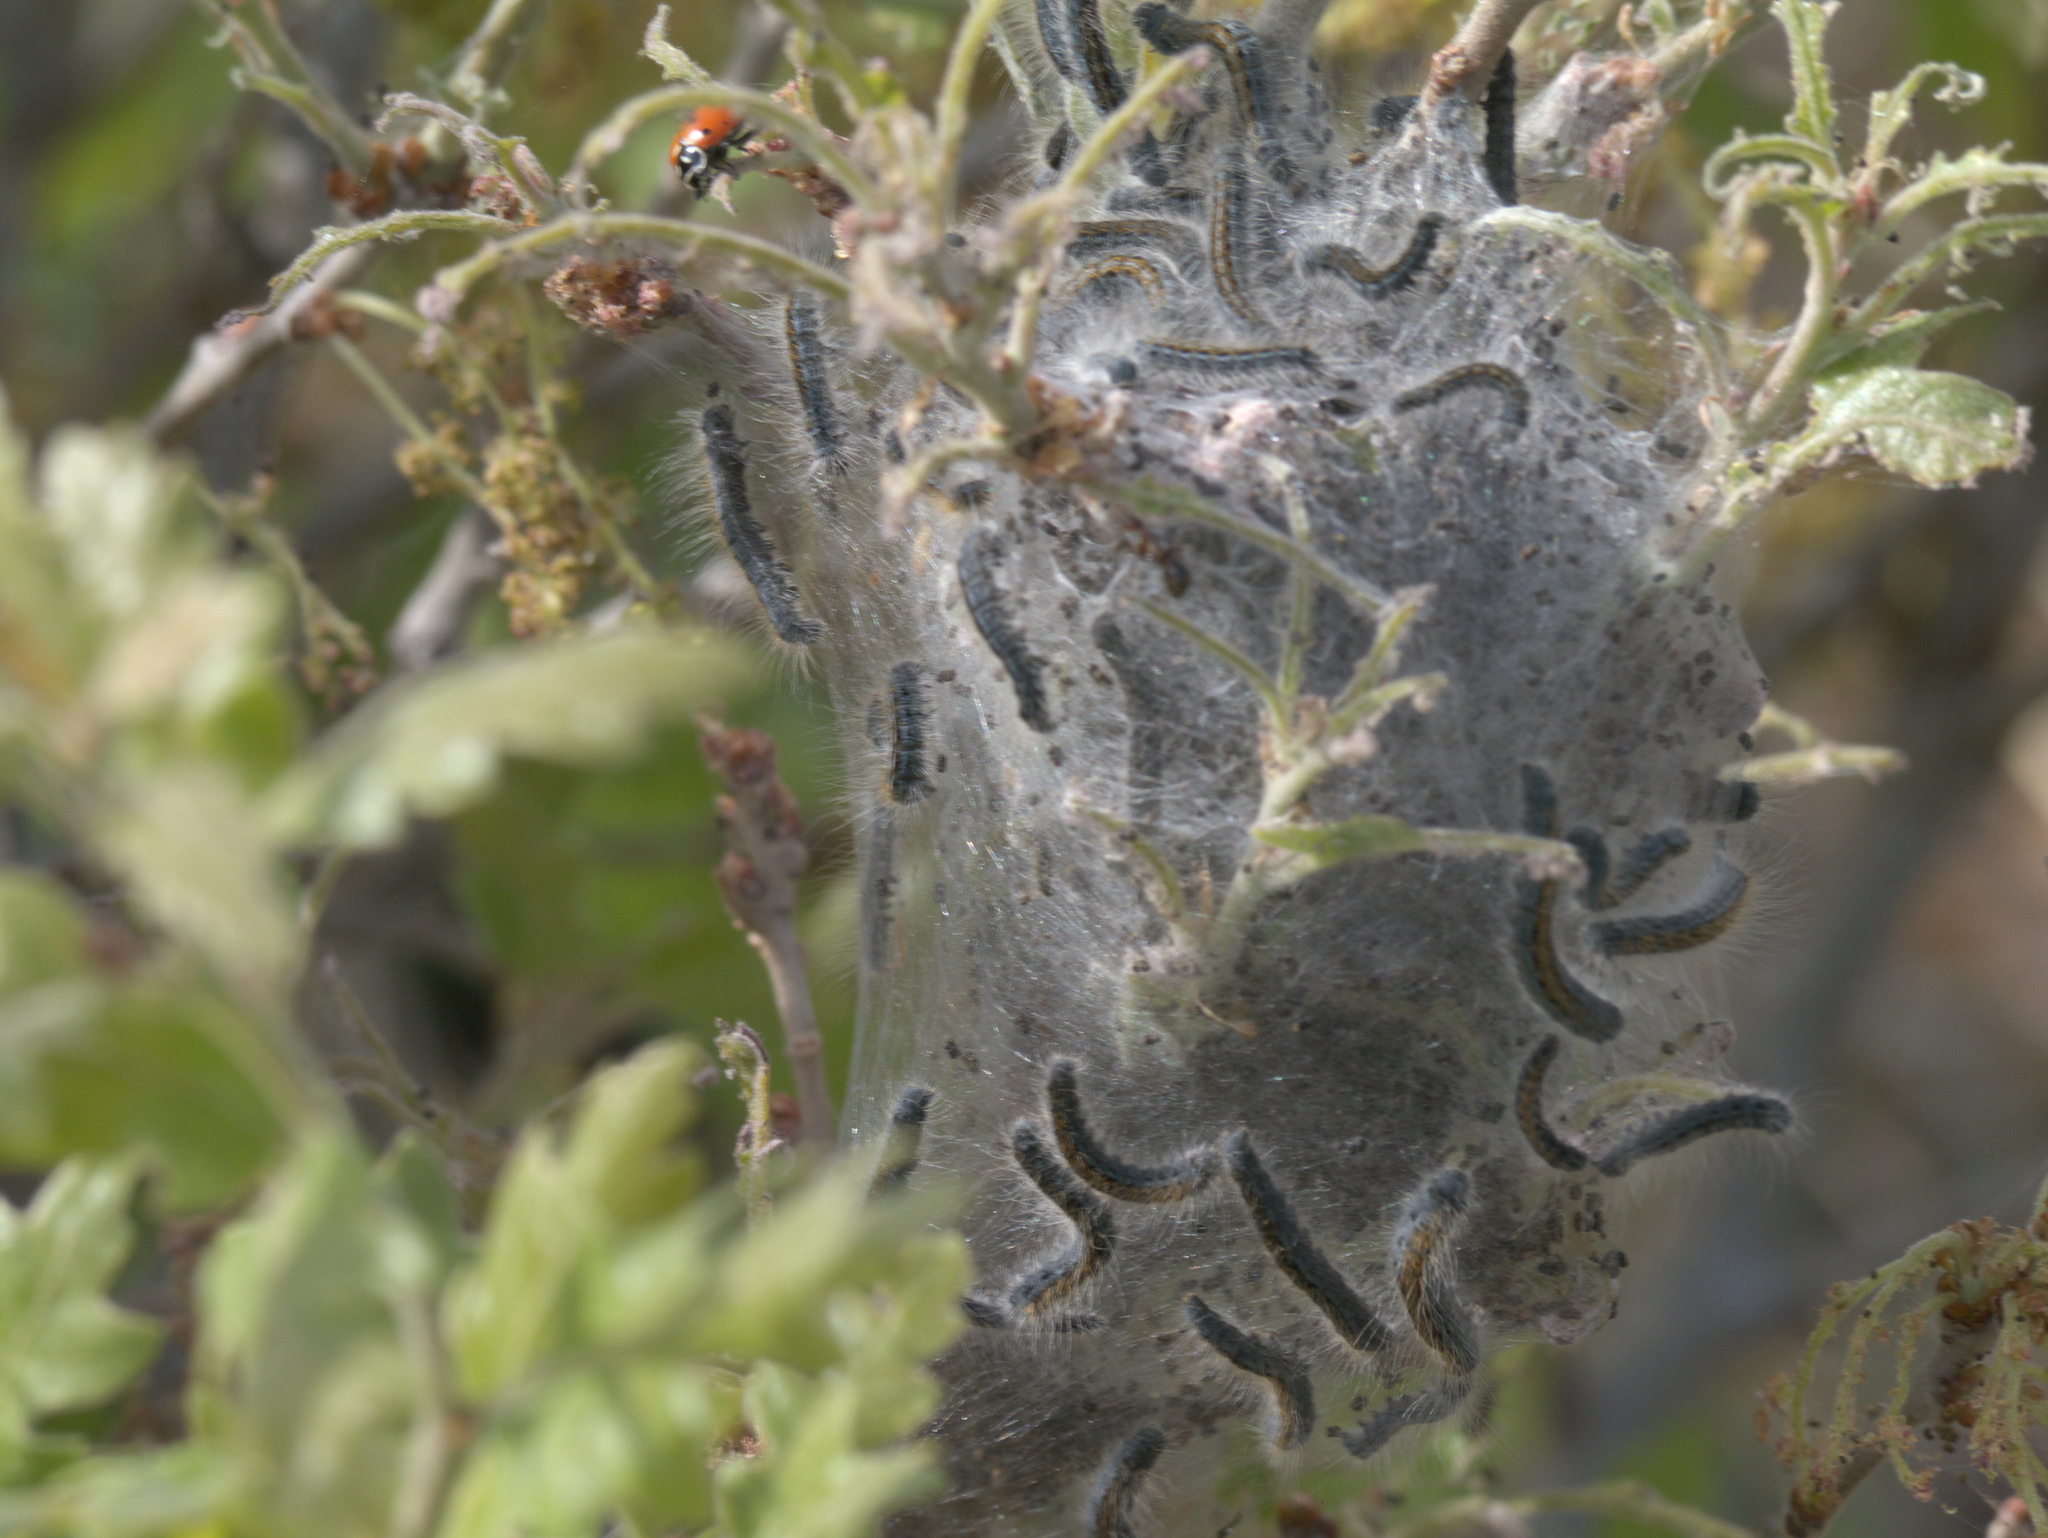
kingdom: Animalia
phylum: Arthropoda
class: Insecta
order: Lepidoptera
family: Lasiocampidae
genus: Malacosoma
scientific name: Malacosoma californica
